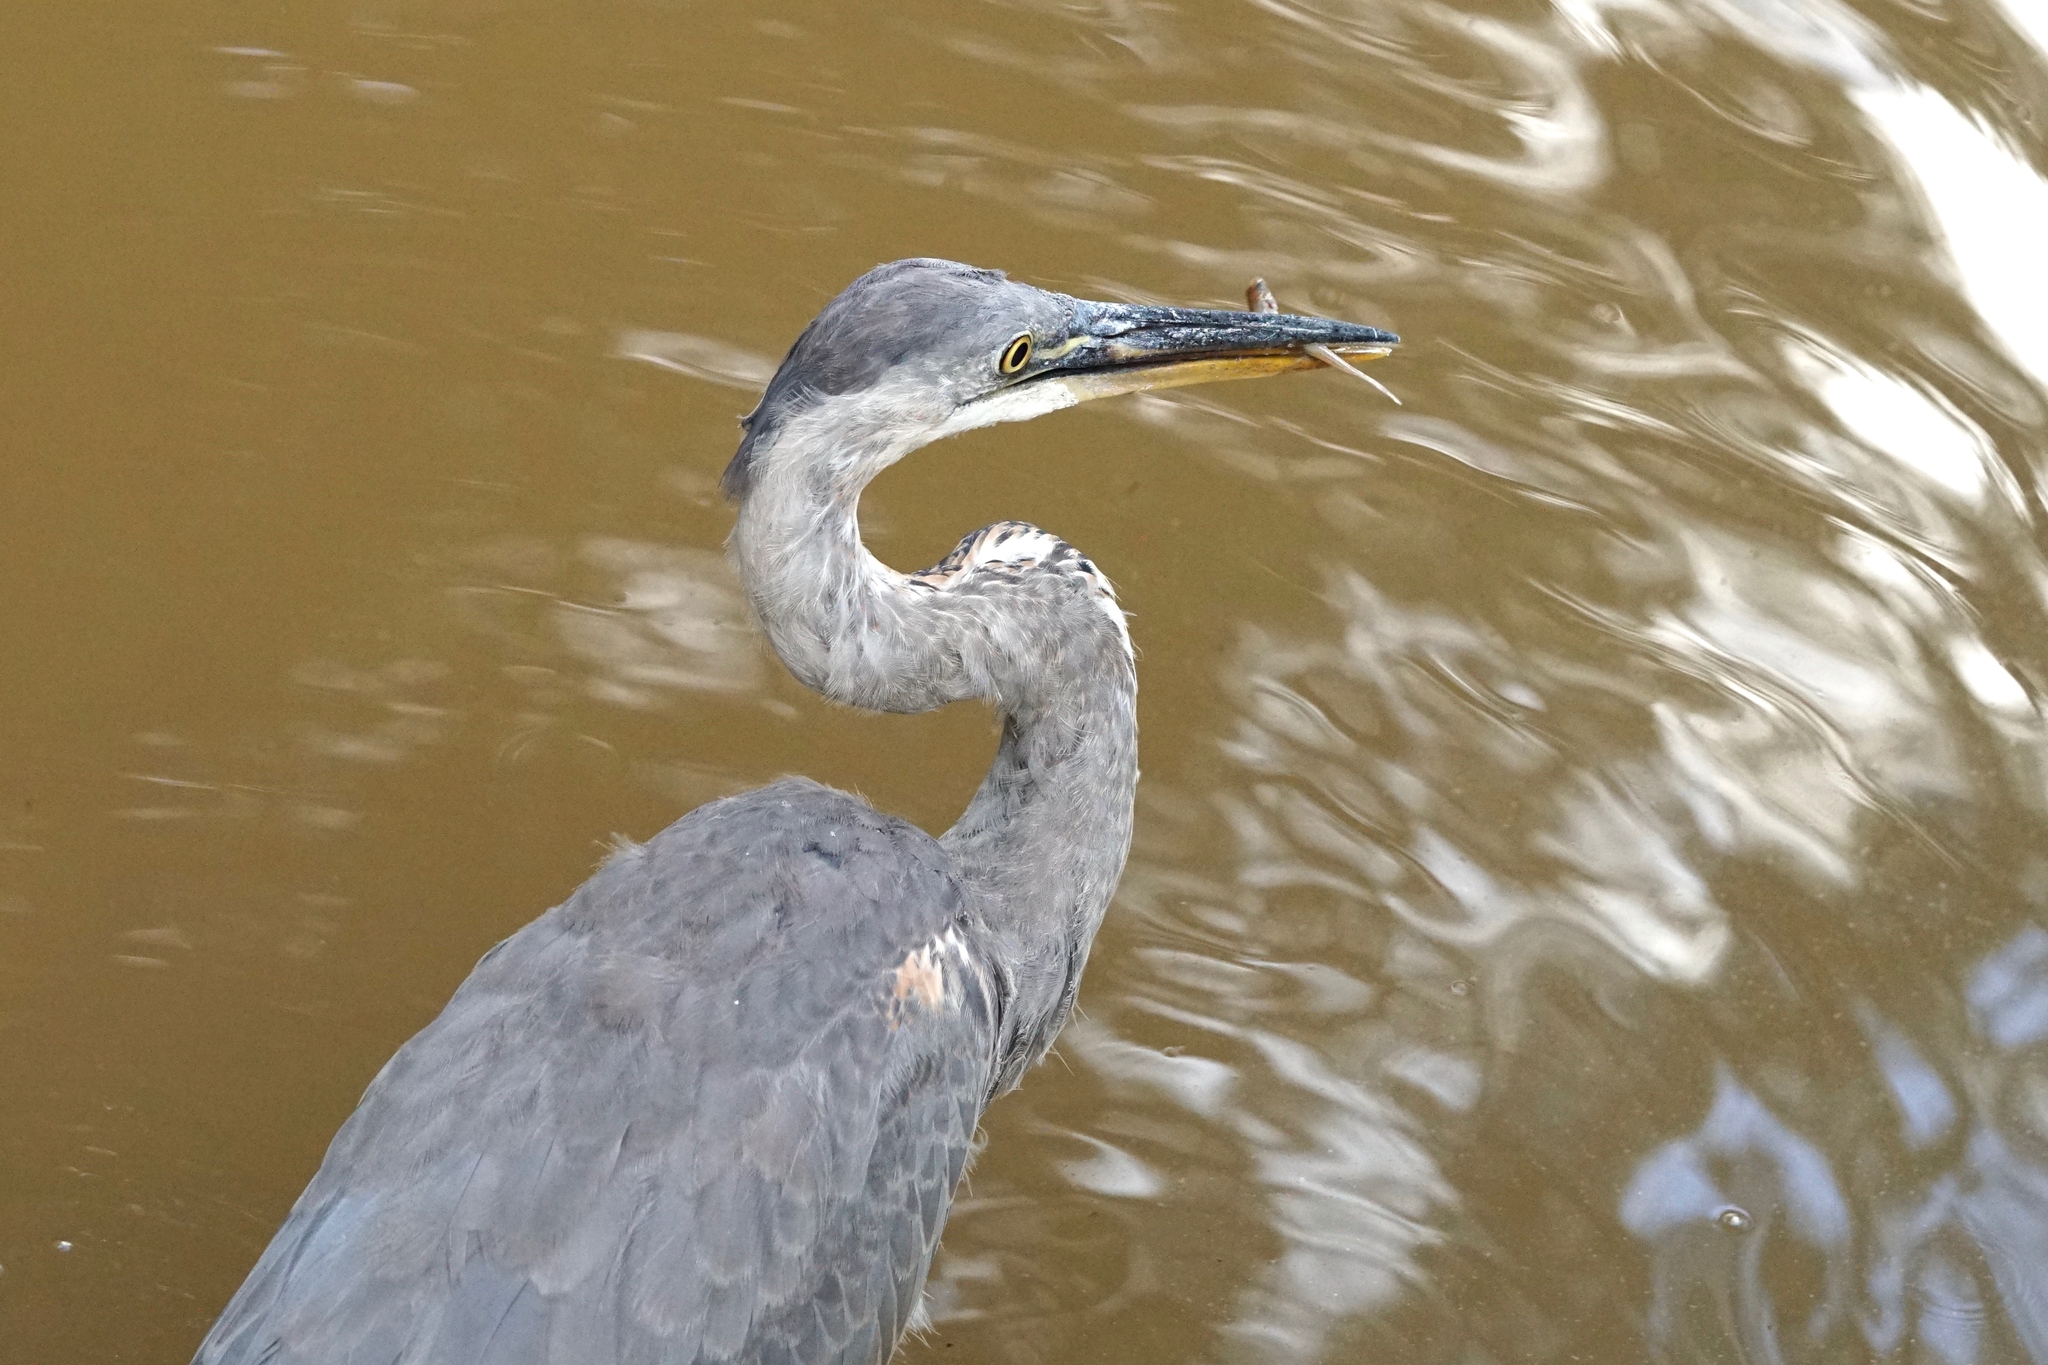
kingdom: Animalia
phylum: Chordata
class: Aves
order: Pelecaniformes
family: Ardeidae
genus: Ardea
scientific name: Ardea herodias
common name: Great blue heron
